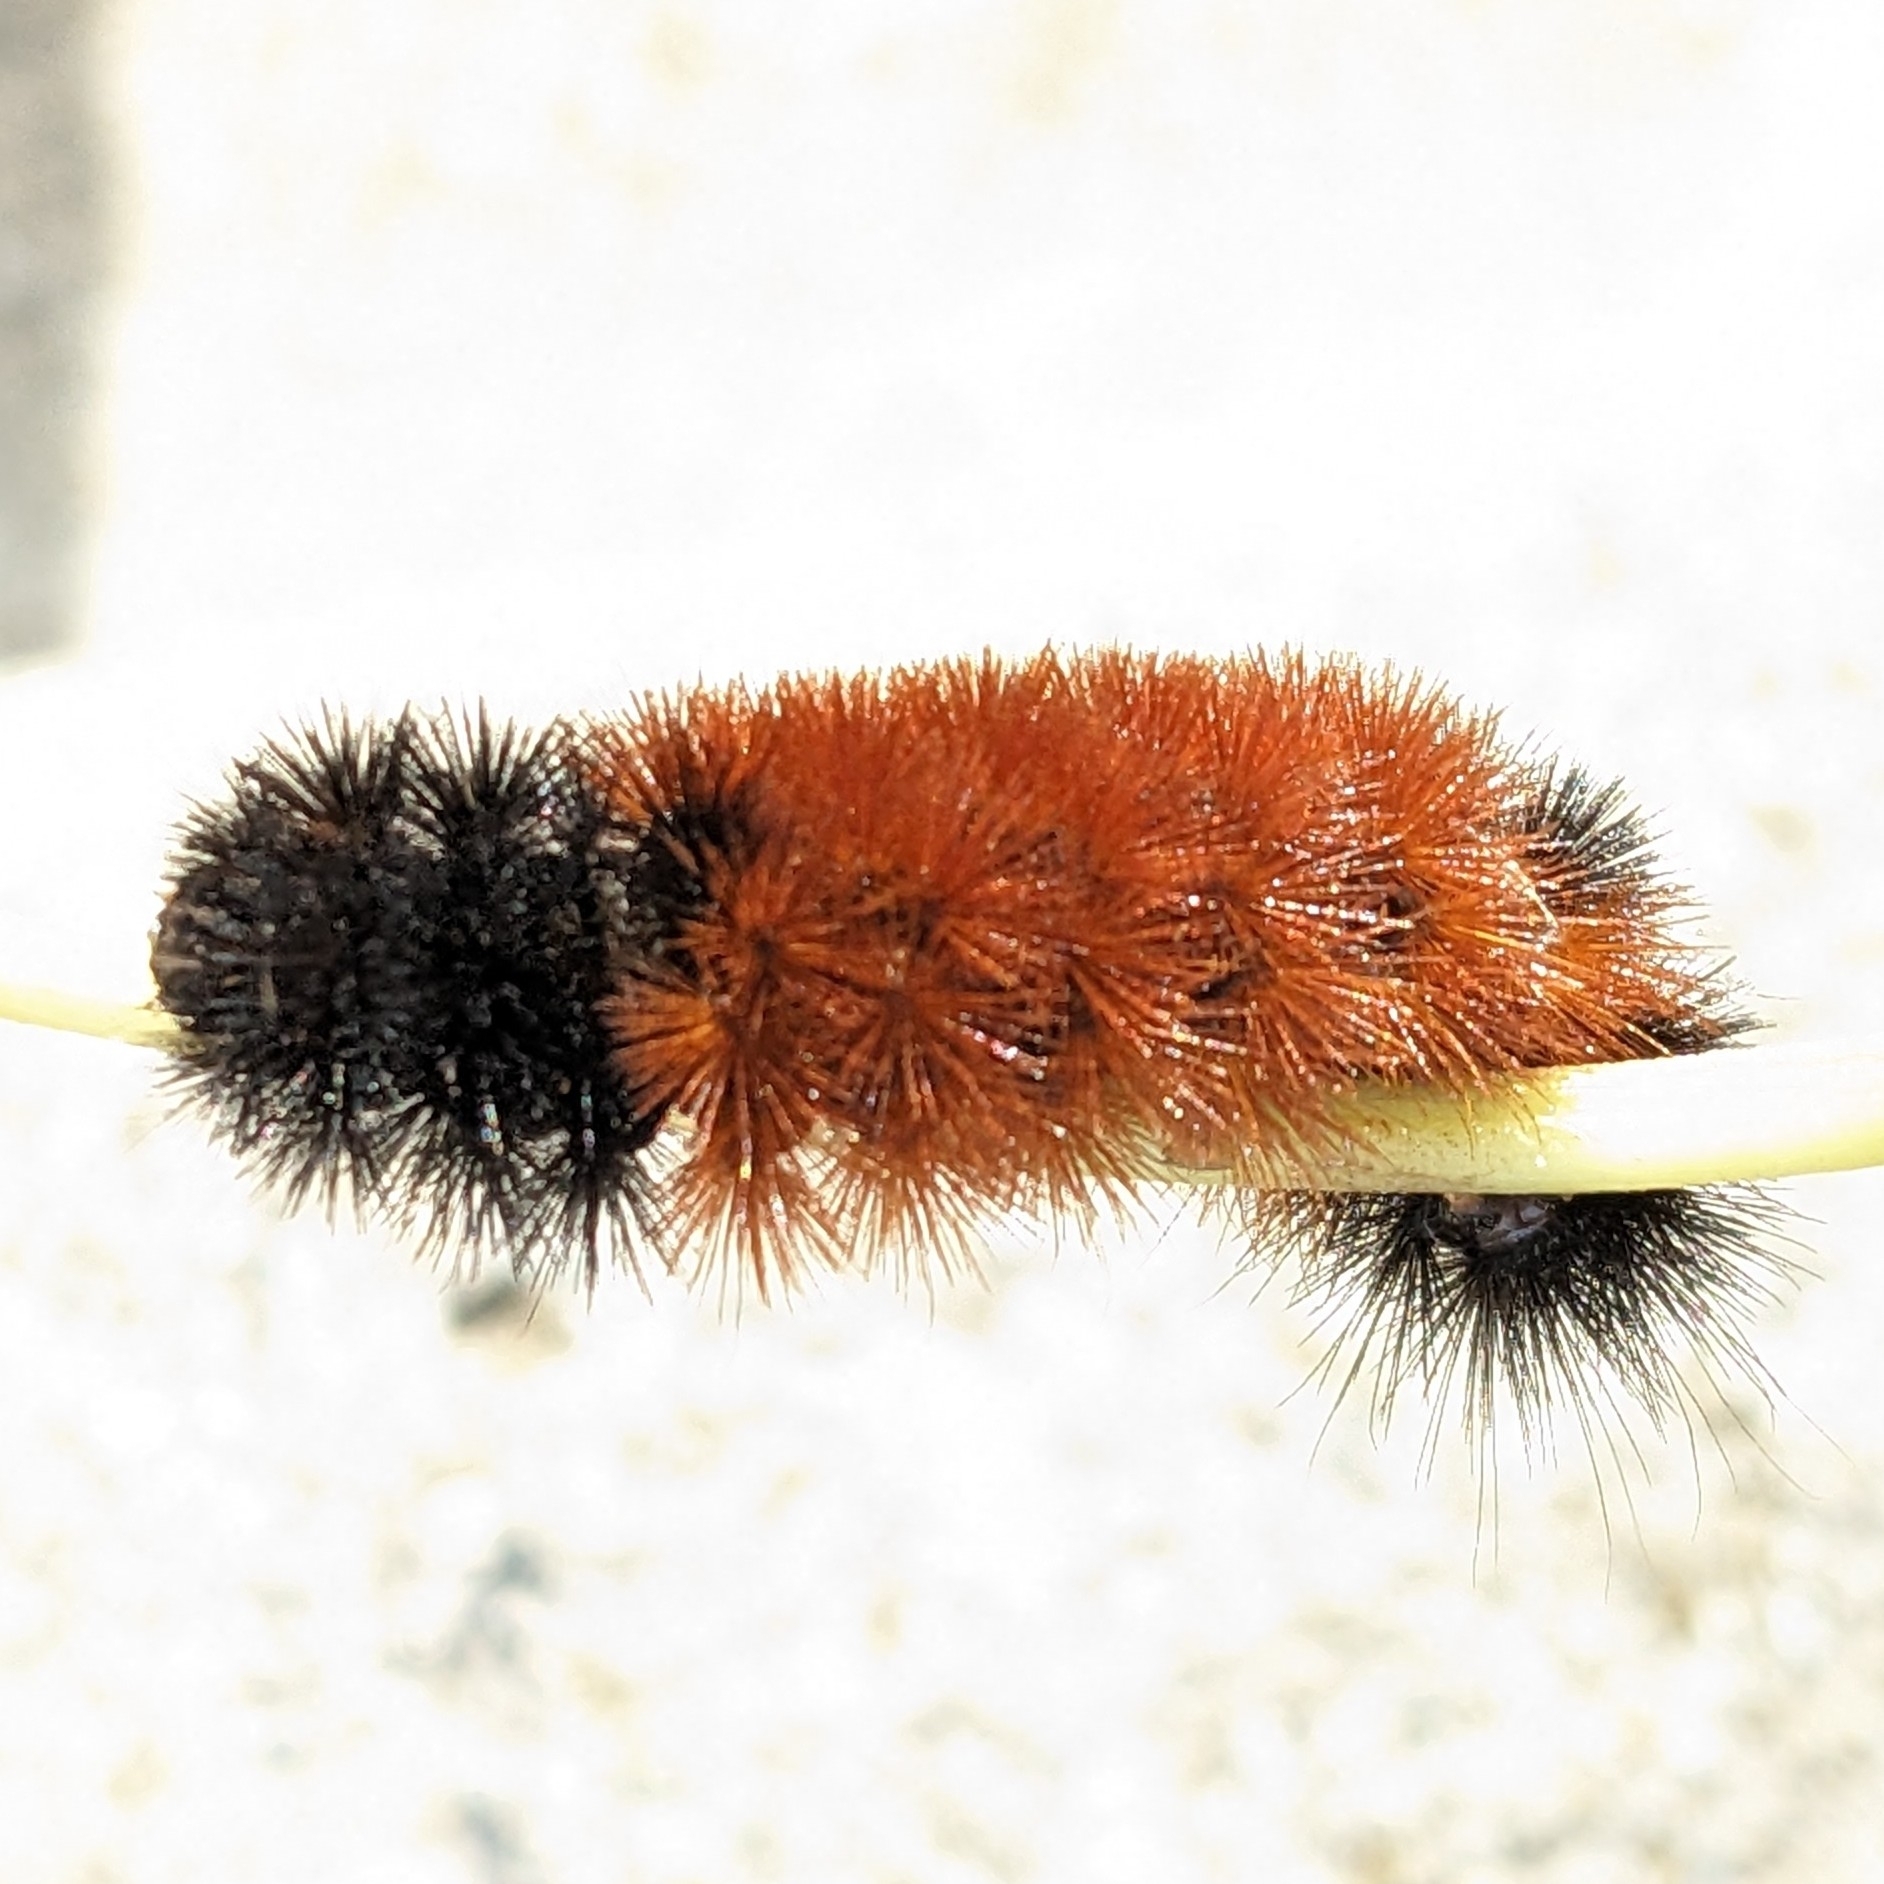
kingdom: Animalia
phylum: Arthropoda
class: Insecta
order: Lepidoptera
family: Erebidae
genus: Pyrrharctia
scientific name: Pyrrharctia isabella
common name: Isabella tiger moth
